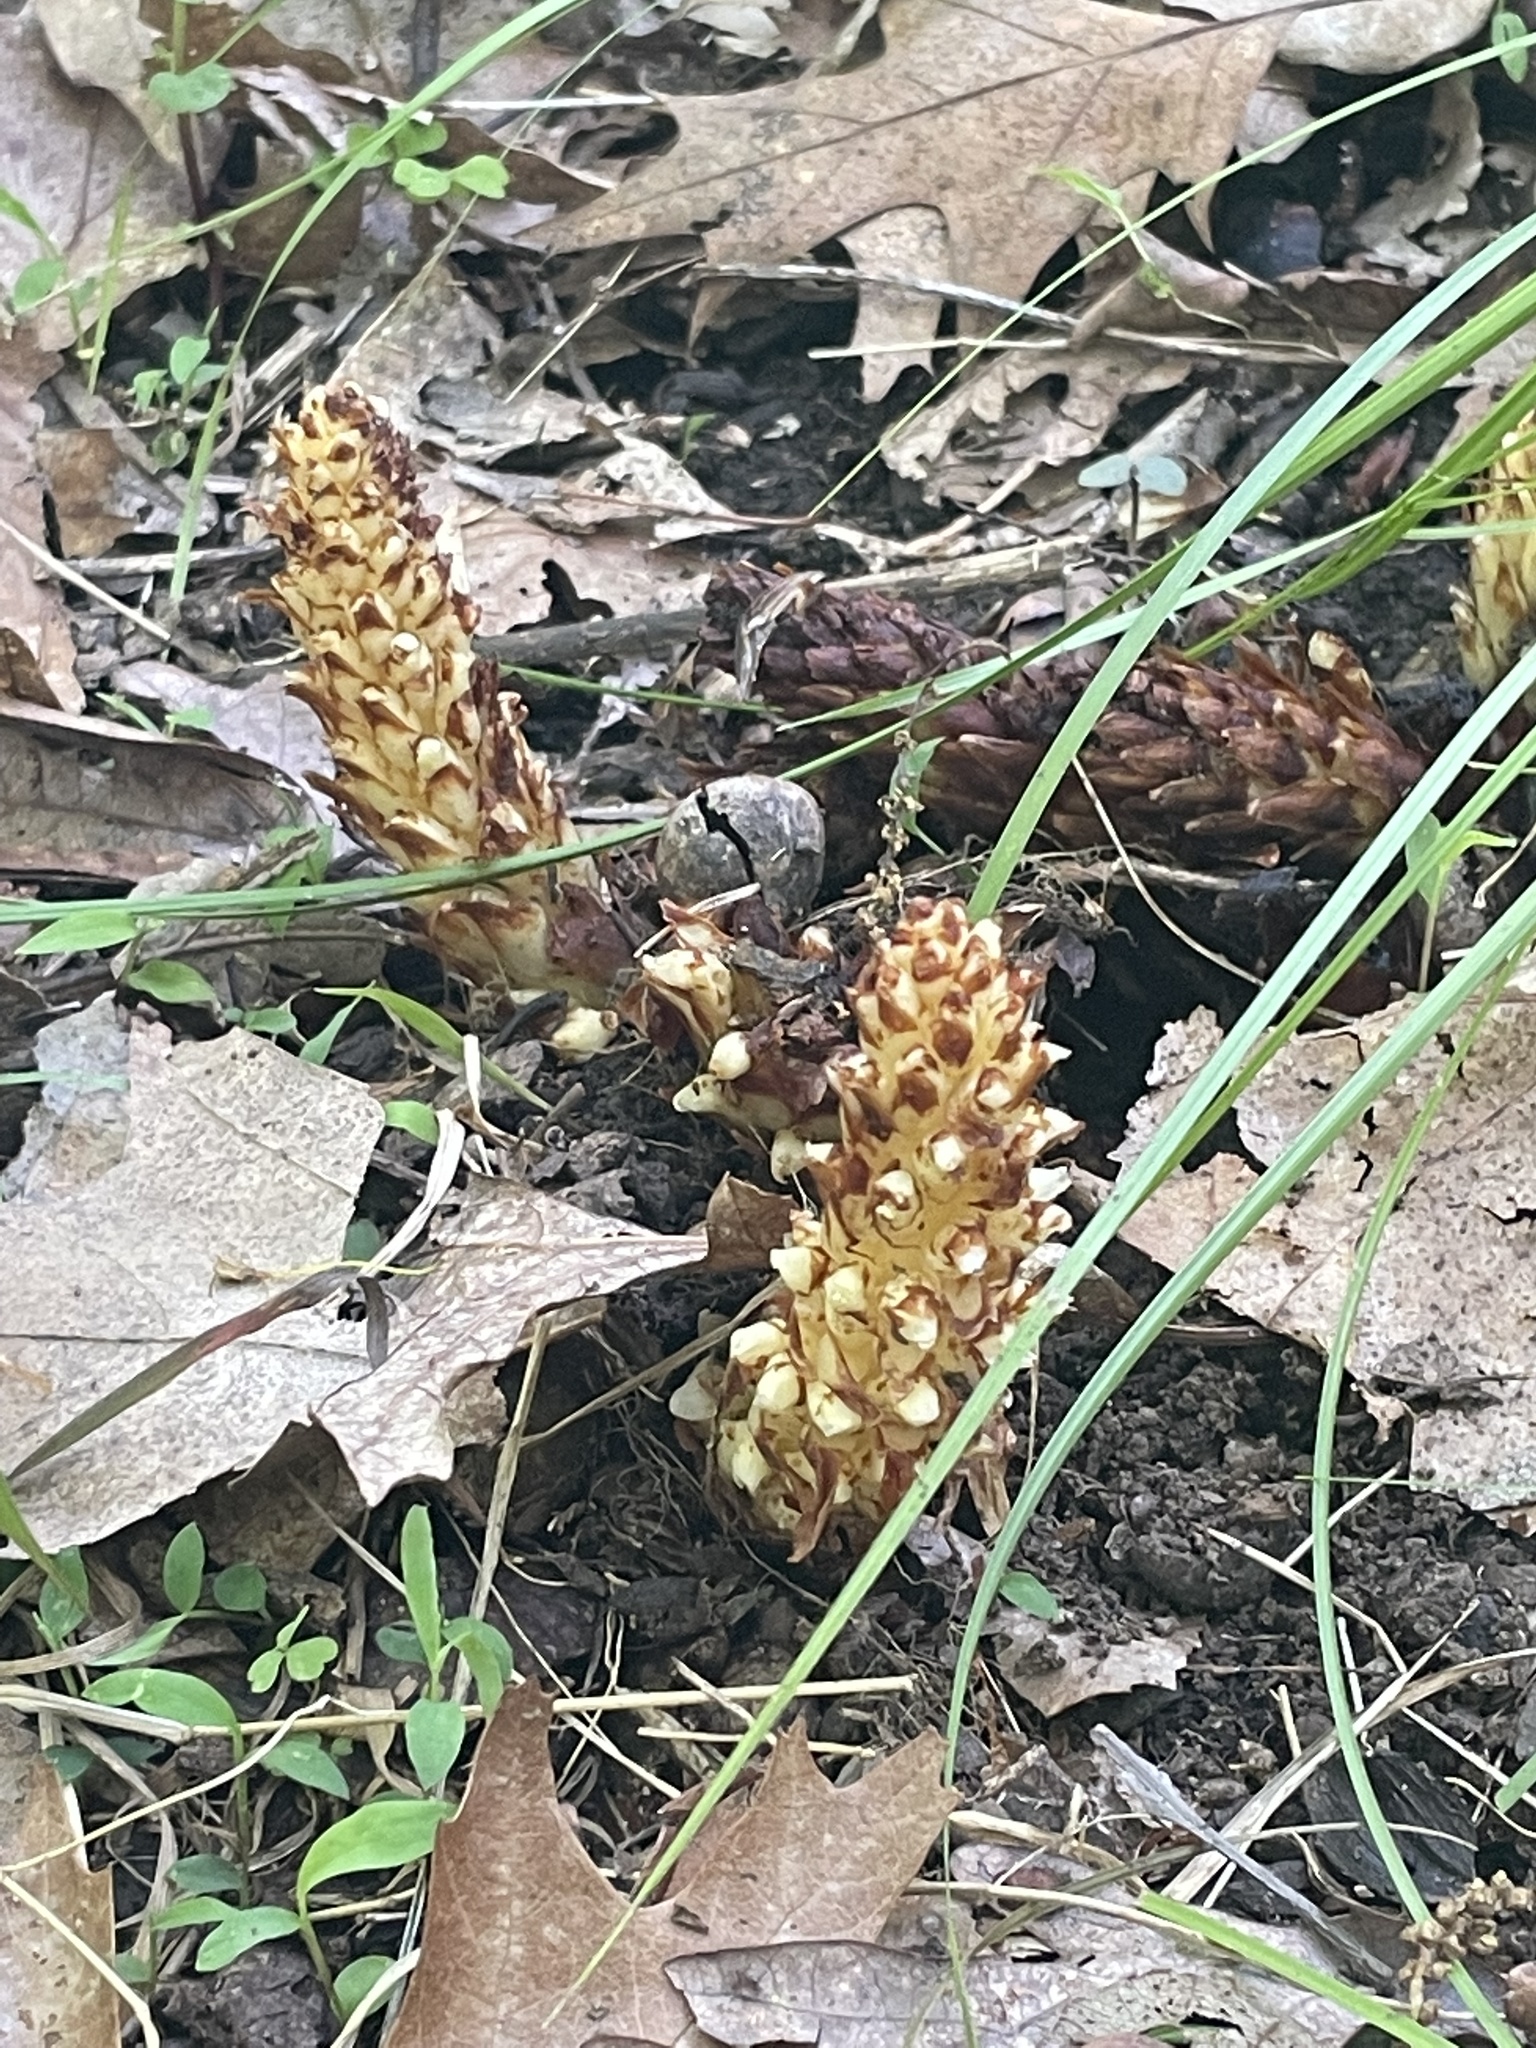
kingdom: Plantae
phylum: Tracheophyta
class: Magnoliopsida
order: Lamiales
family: Orobanchaceae
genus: Conopholis
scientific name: Conopholis americana
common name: American cancer-root
